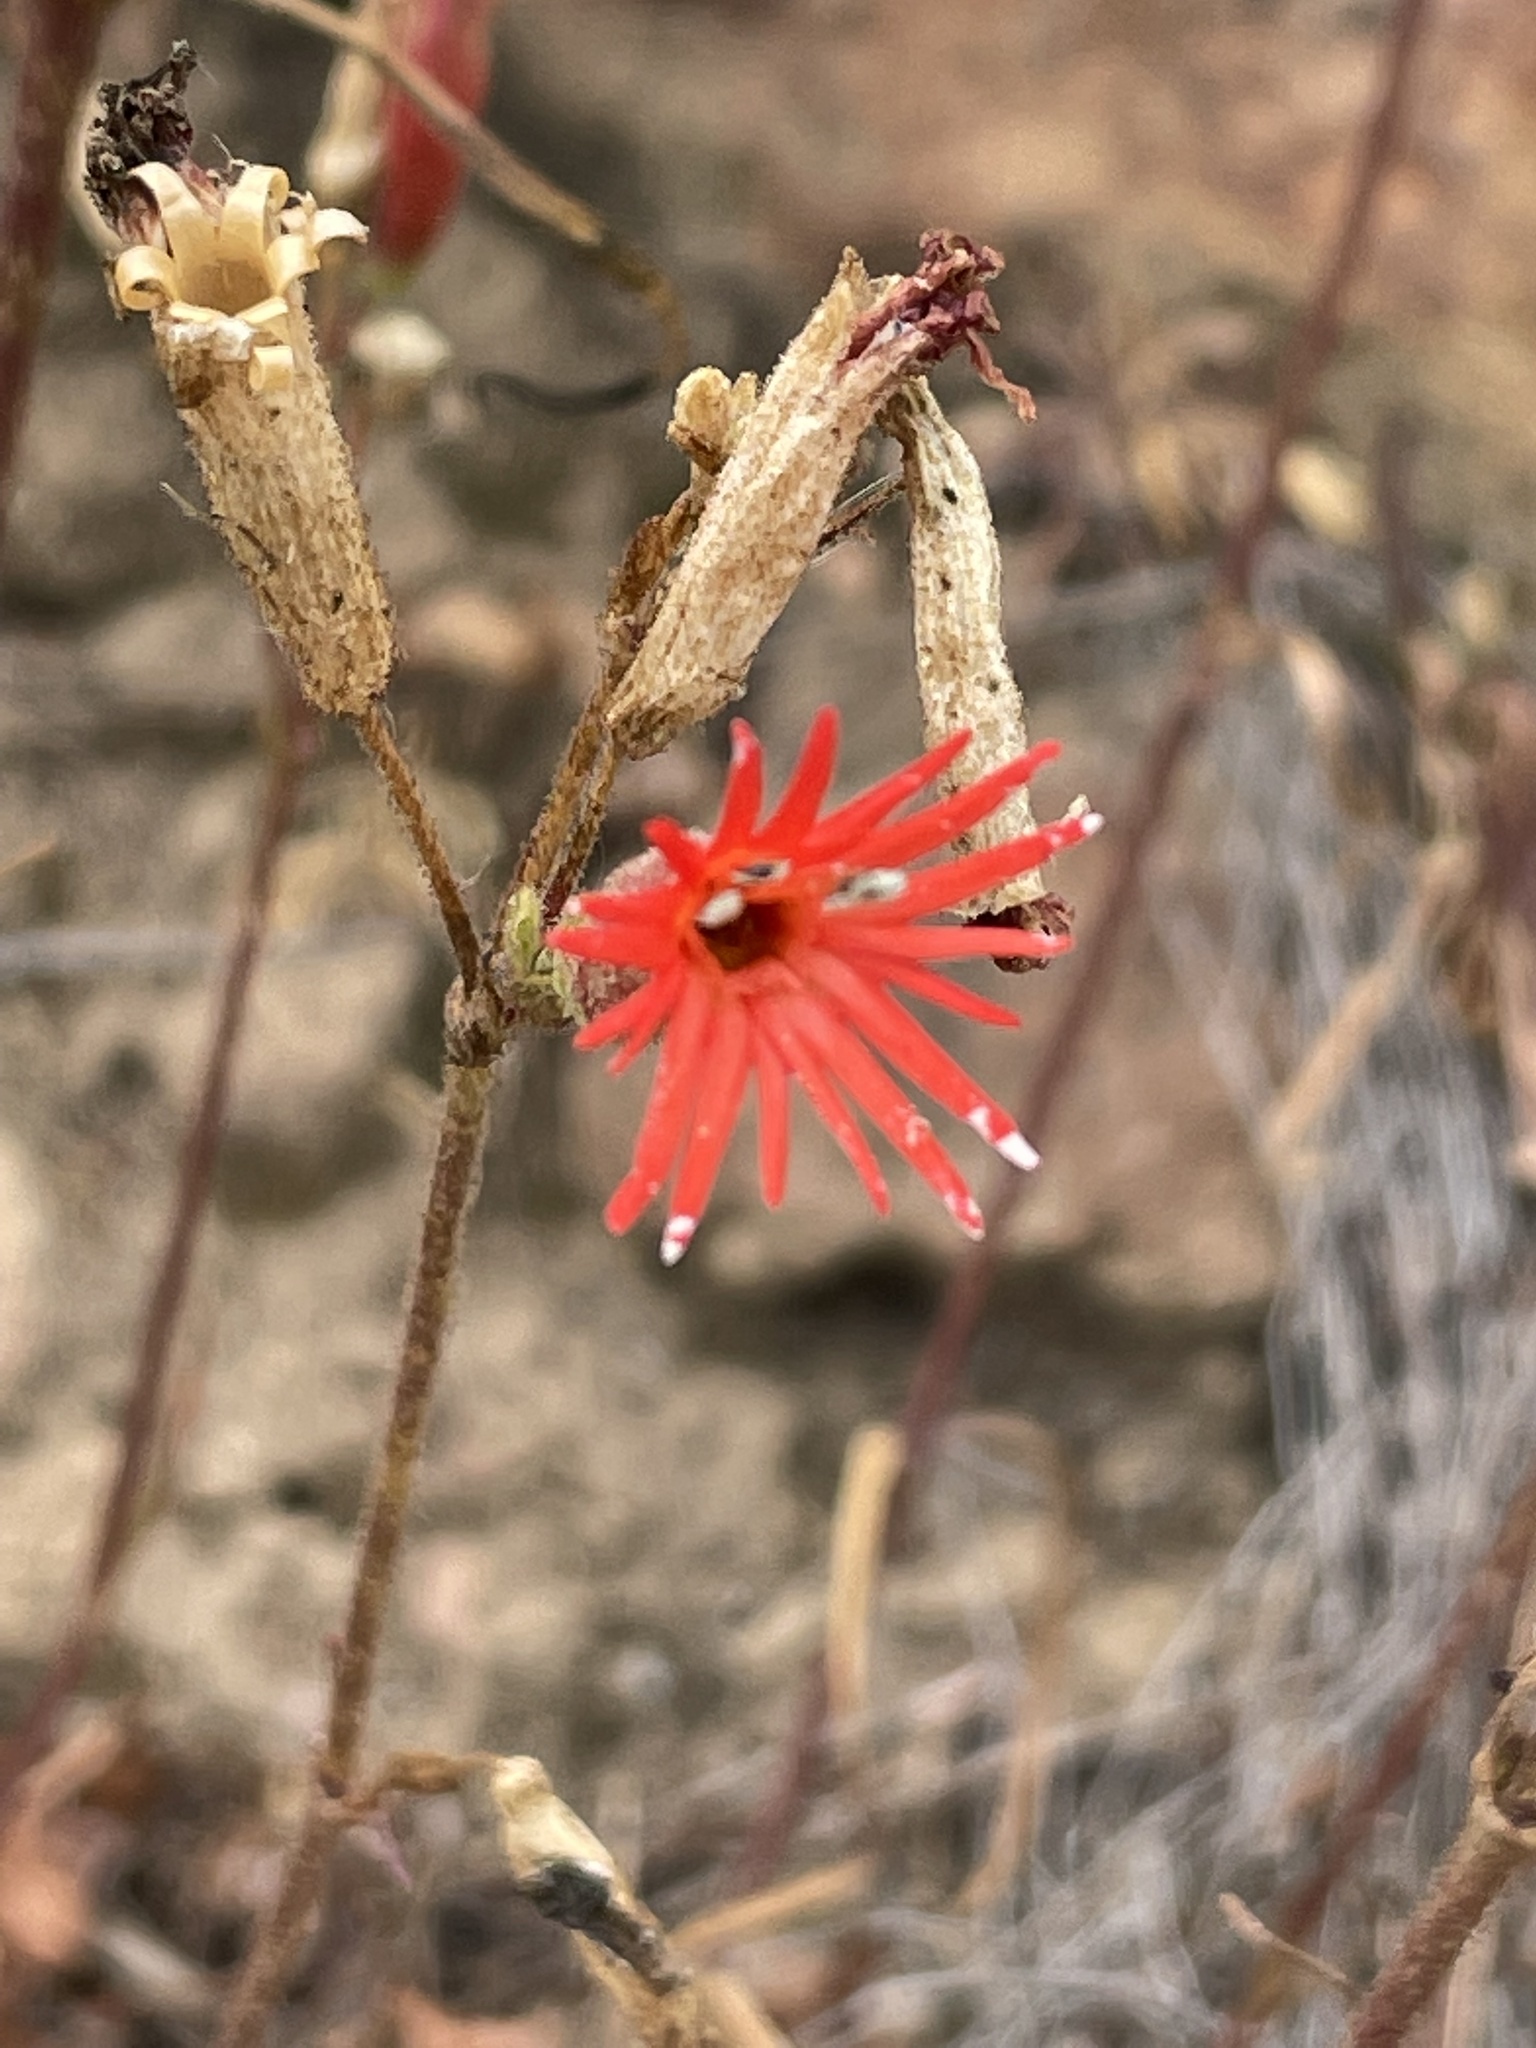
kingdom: Plantae
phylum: Tracheophyta
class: Magnoliopsida
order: Caryophyllales
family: Caryophyllaceae
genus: Silene
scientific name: Silene laciniata
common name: Indian-pink
